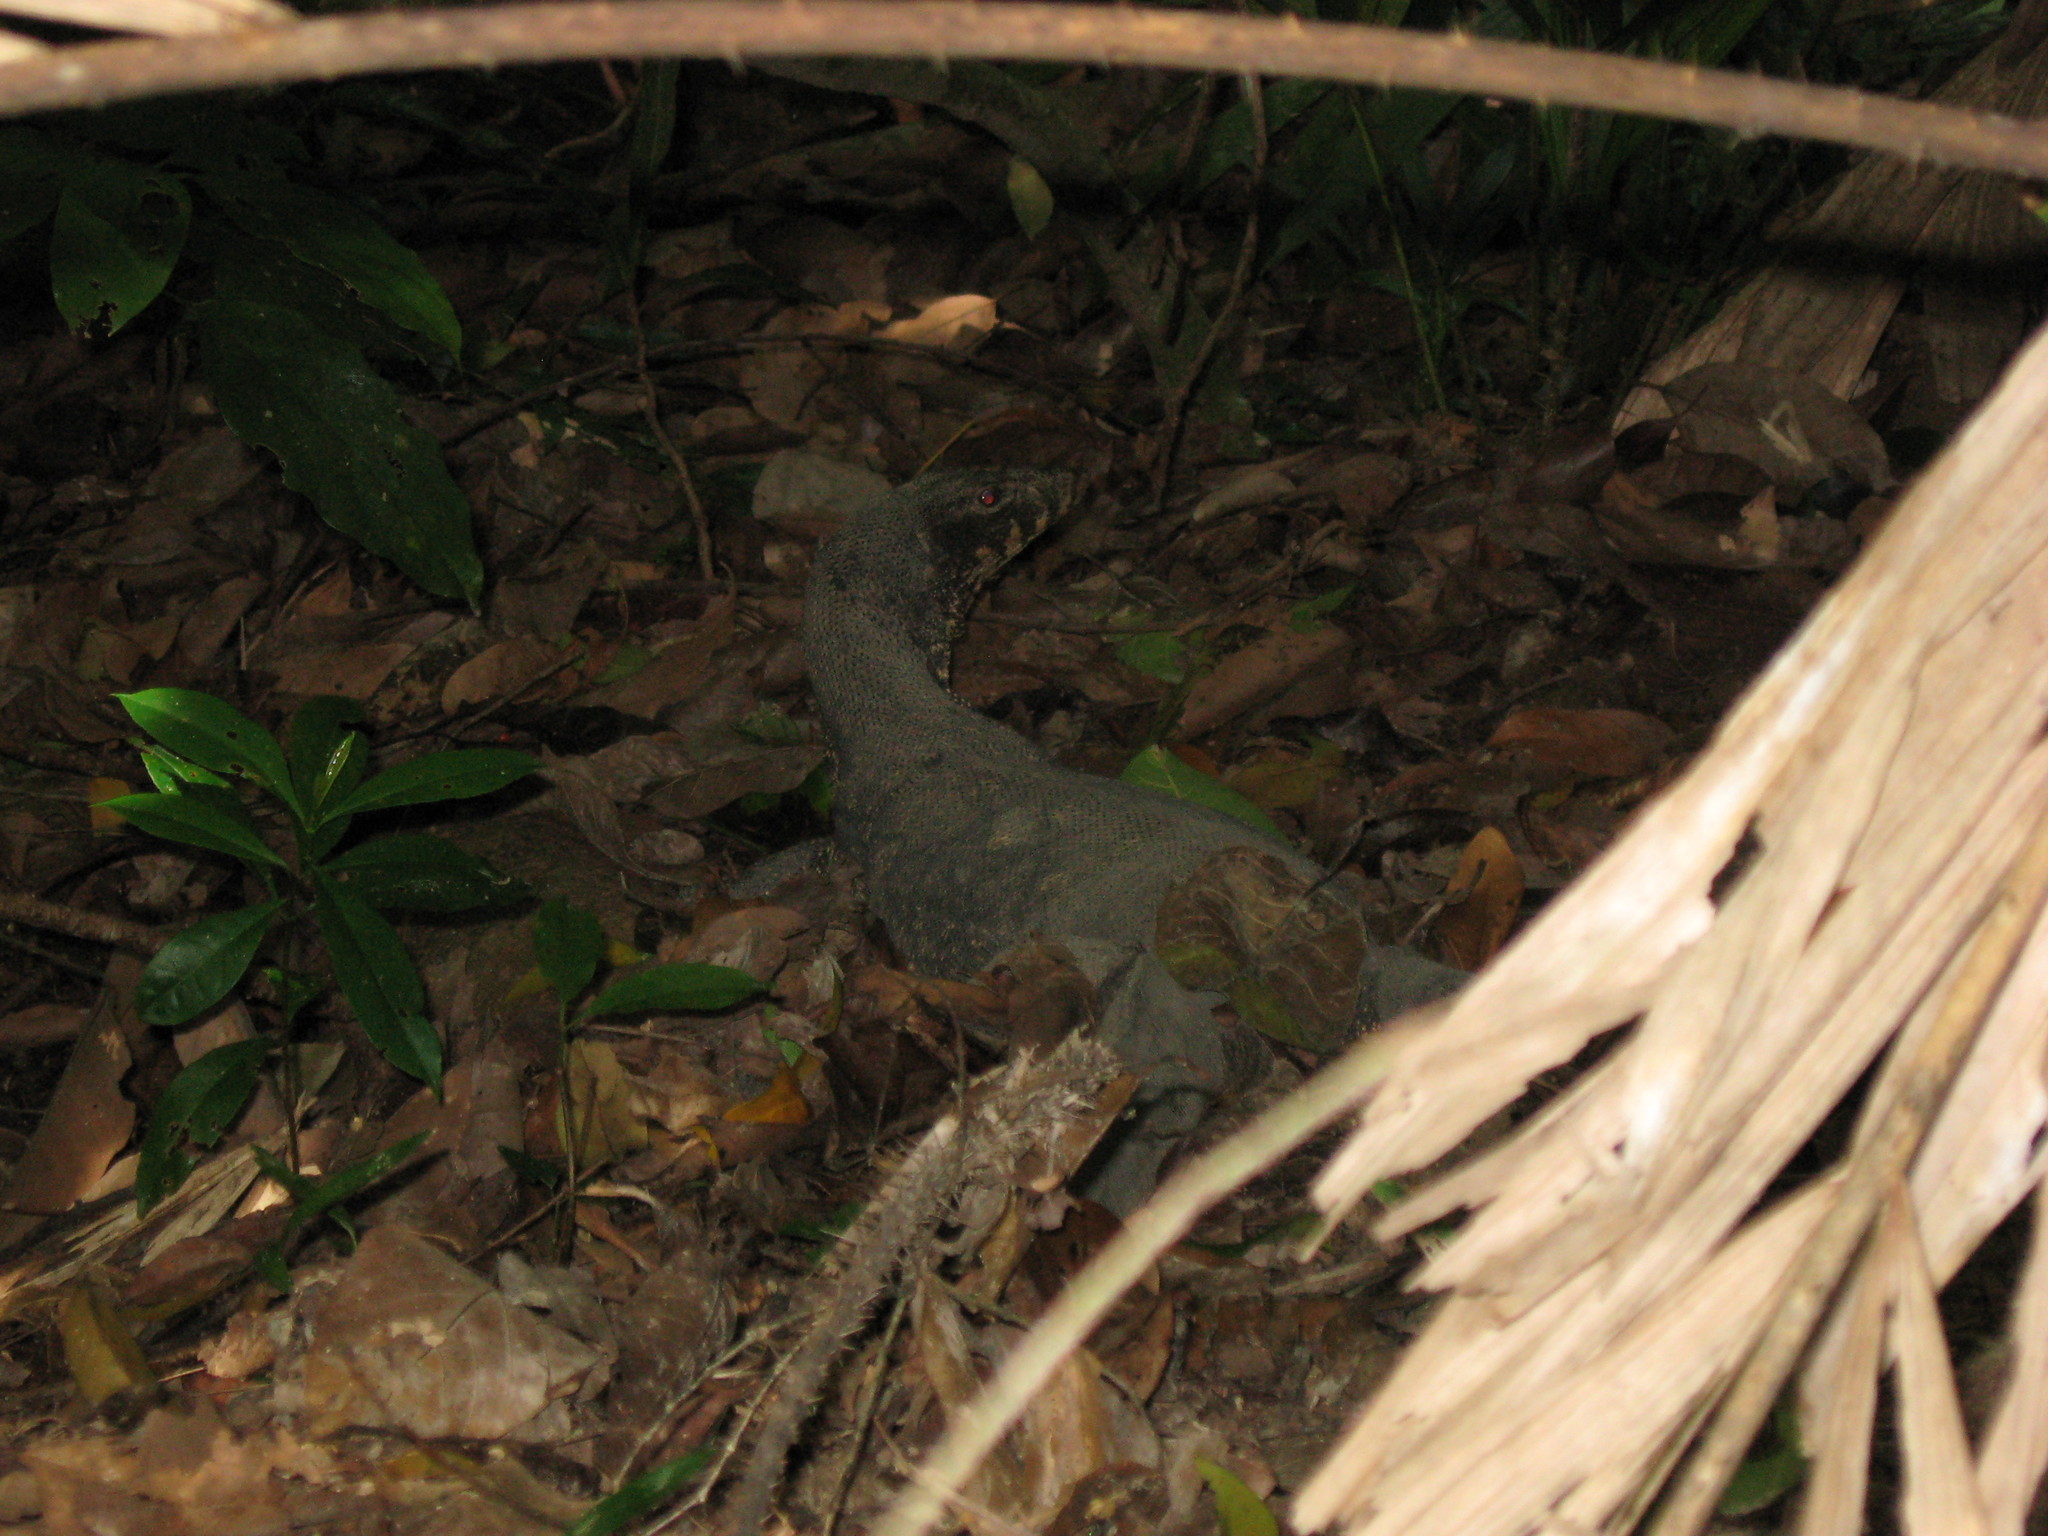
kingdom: Animalia
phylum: Chordata
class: Squamata
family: Varanidae
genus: Varanus
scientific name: Varanus salvator
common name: Common water monitor
